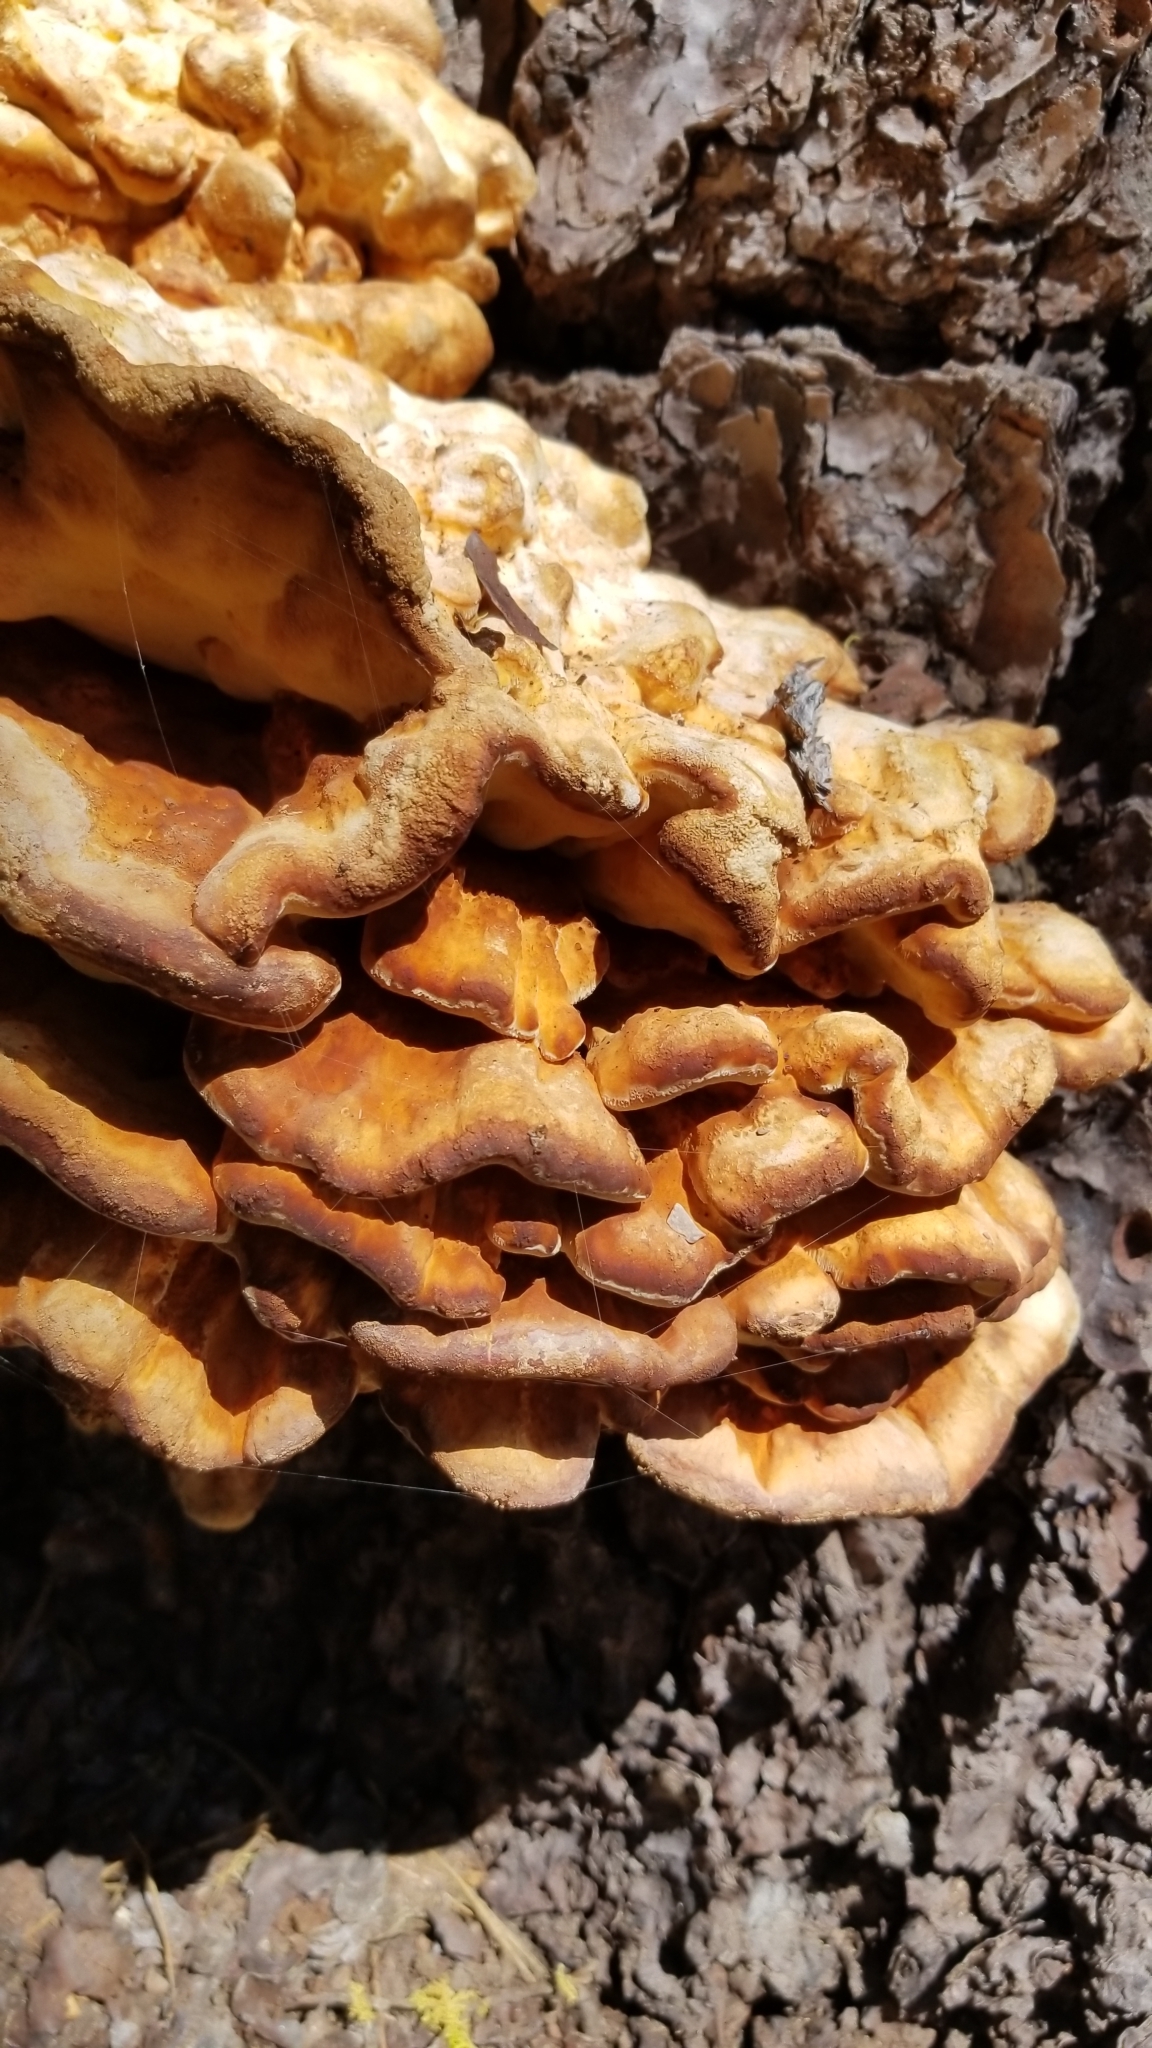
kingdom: Fungi
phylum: Basidiomycota
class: Agaricomycetes
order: Polyporales
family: Laetiporaceae
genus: Laetiporus
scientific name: Laetiporus conifericola
